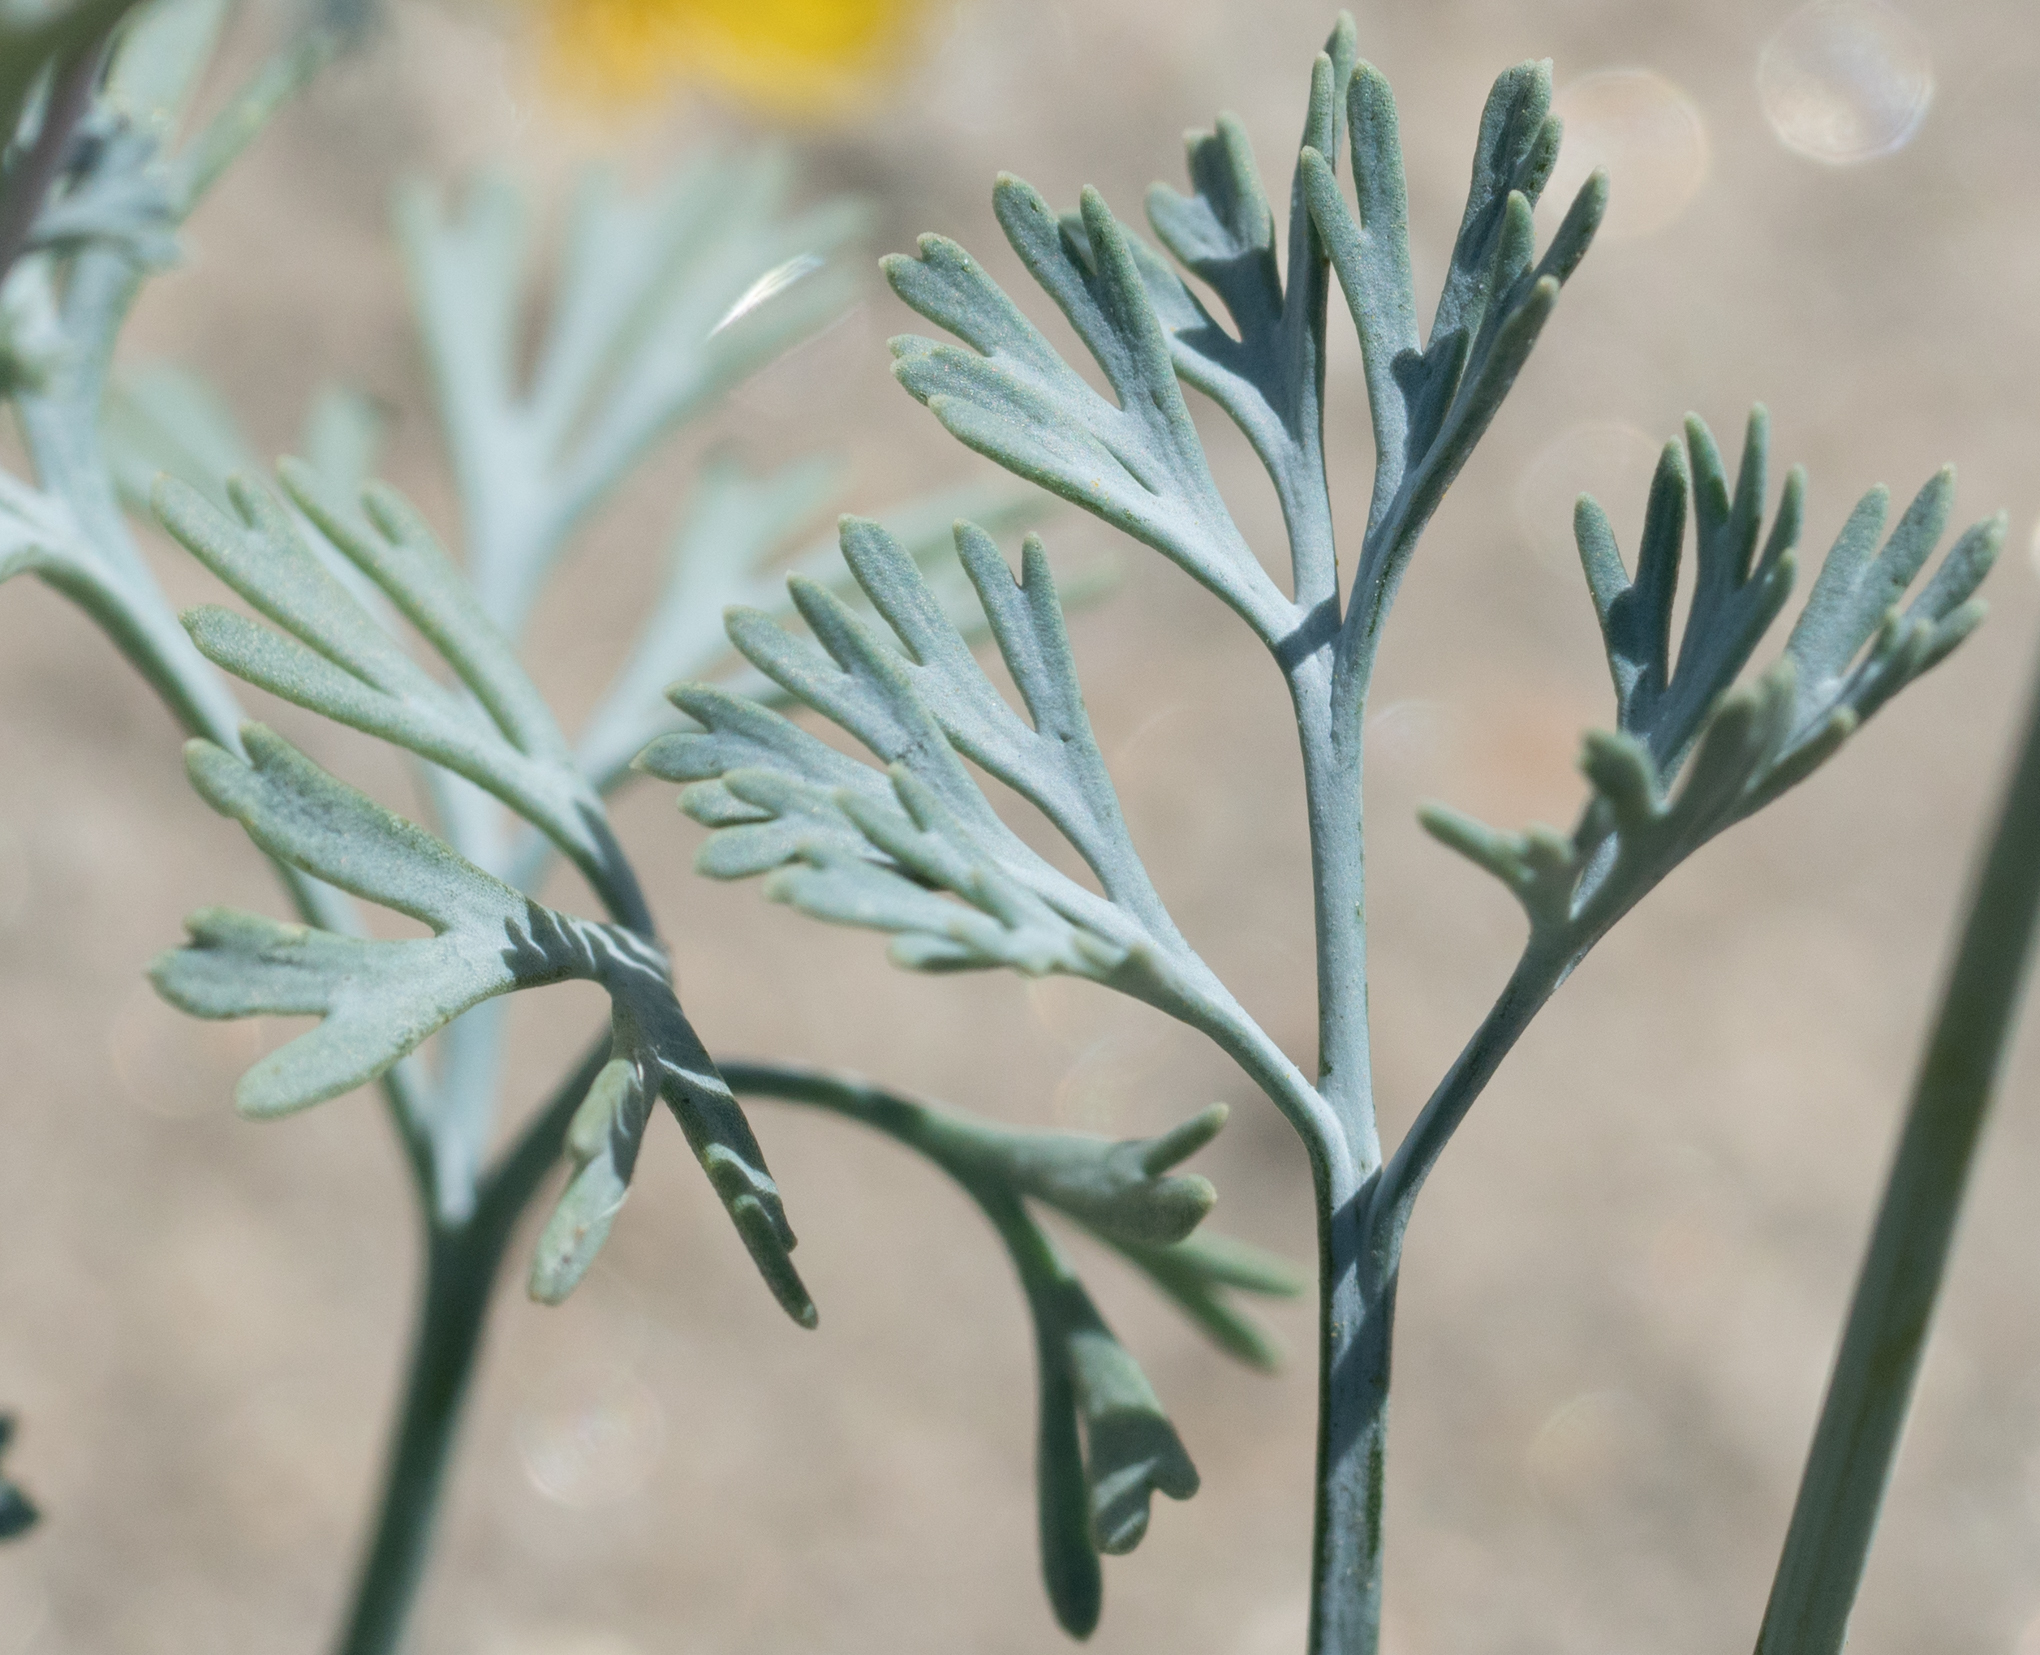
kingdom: Plantae
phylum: Tracheophyta
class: Magnoliopsida
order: Ranunculales
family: Papaveraceae
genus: Eschscholzia
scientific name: Eschscholzia minutiflora
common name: Small-flower california-poppy
